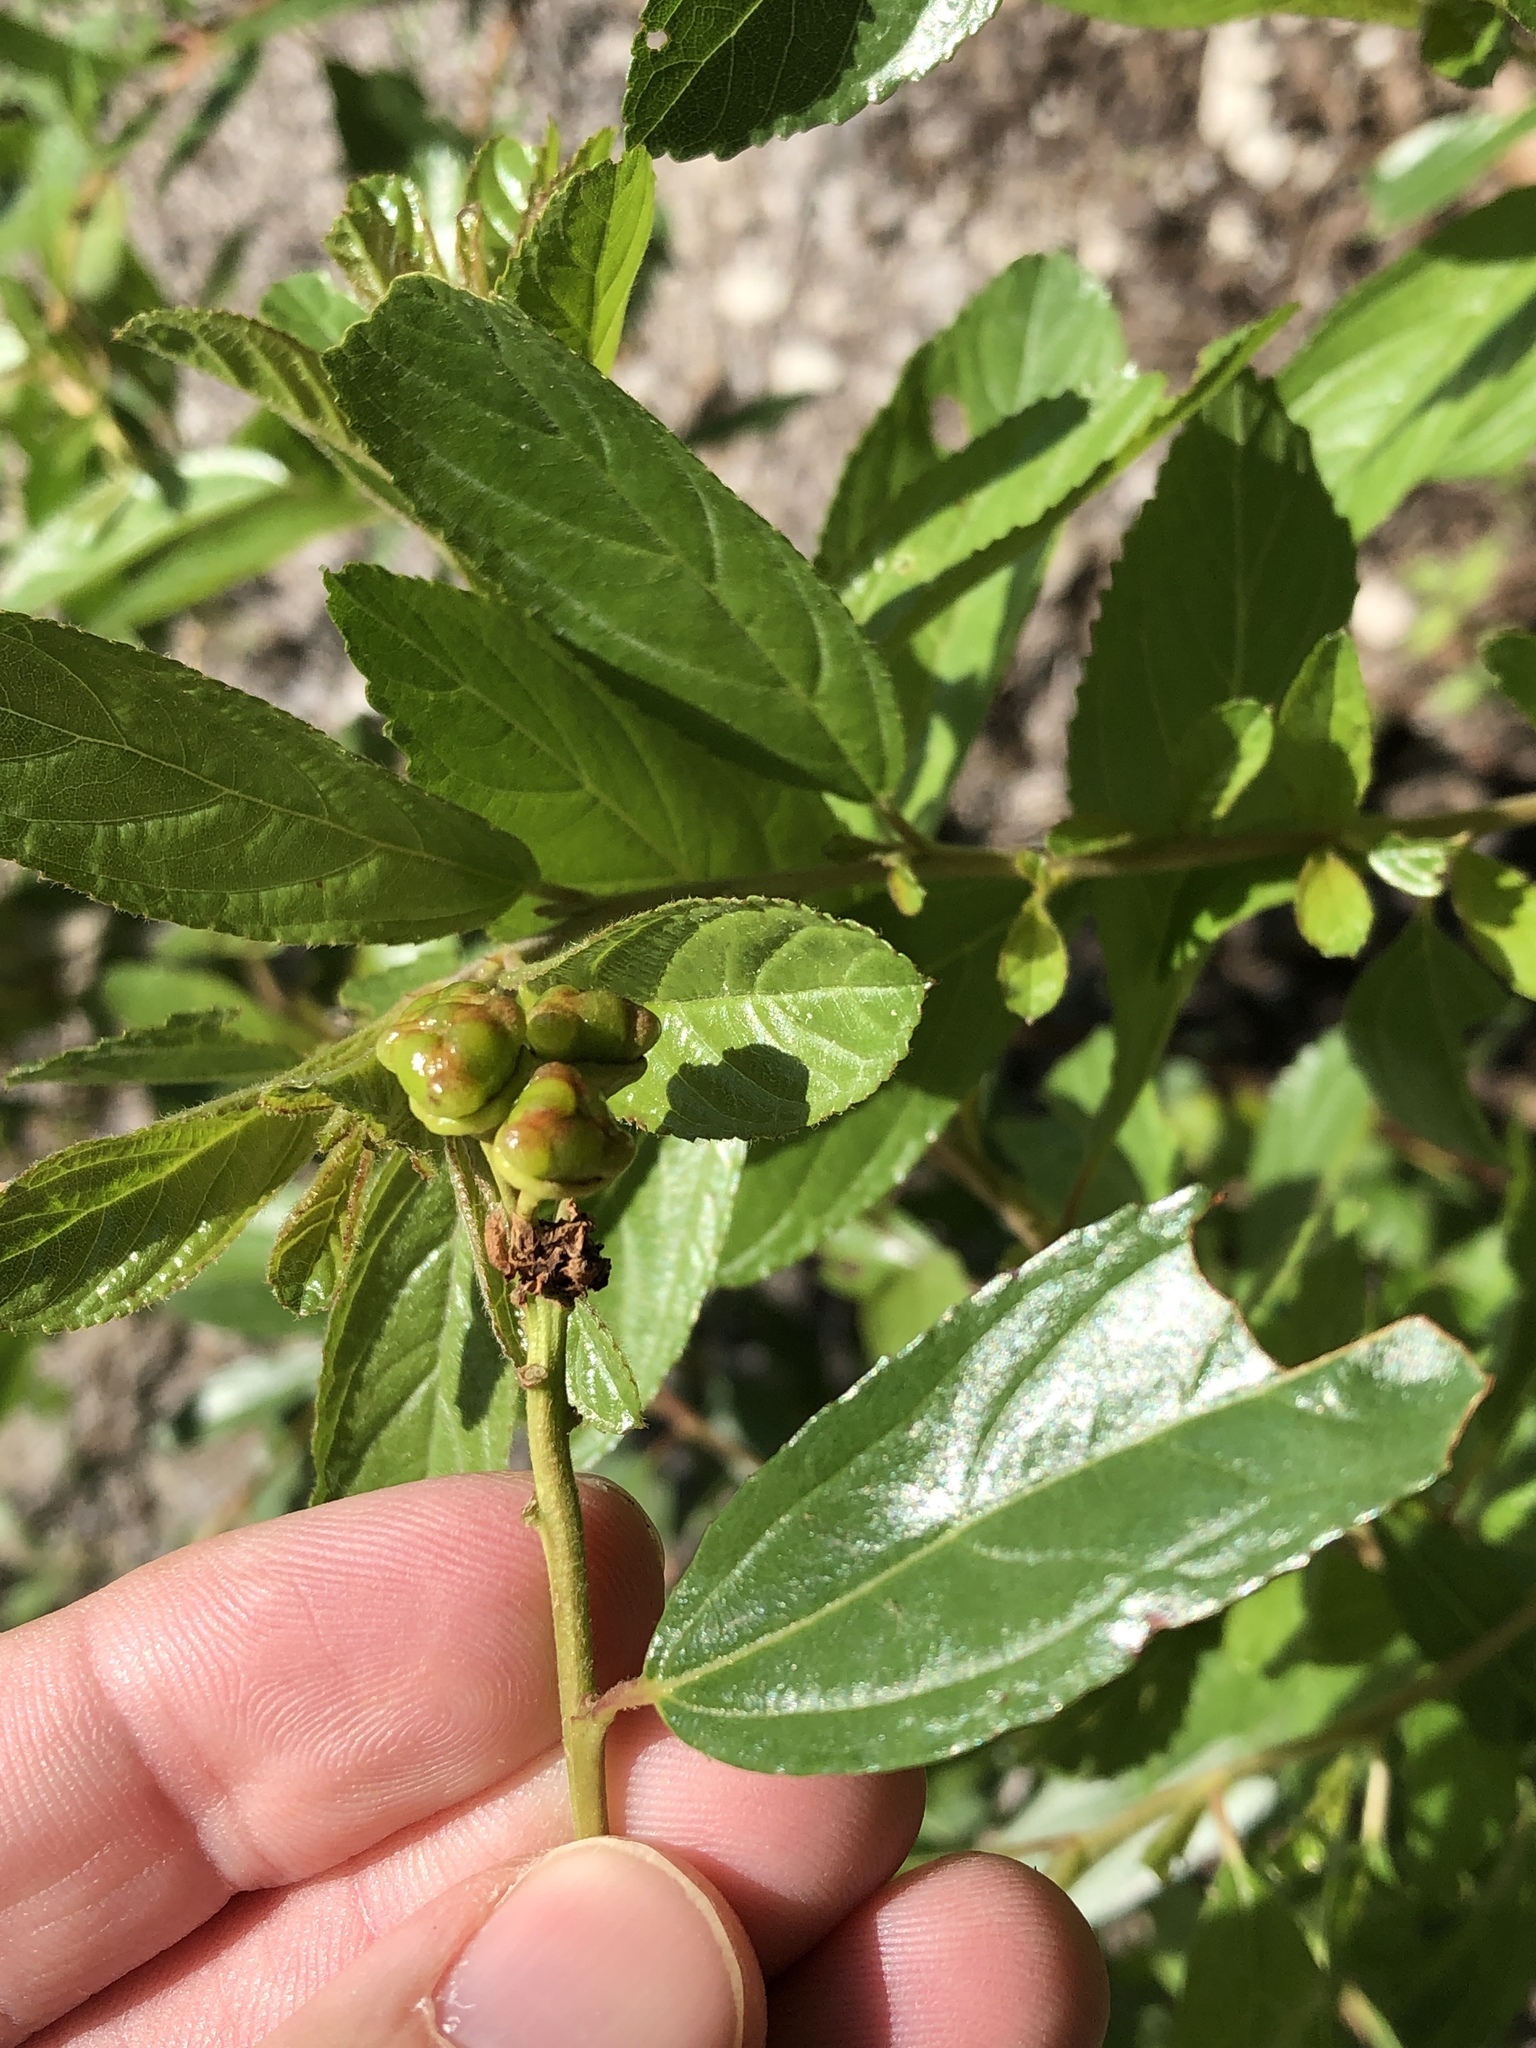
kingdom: Plantae
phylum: Tracheophyta
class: Magnoliopsida
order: Rosales
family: Rhamnaceae
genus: Ceanothus
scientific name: Ceanothus herbaceus
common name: Inland ceanothus
